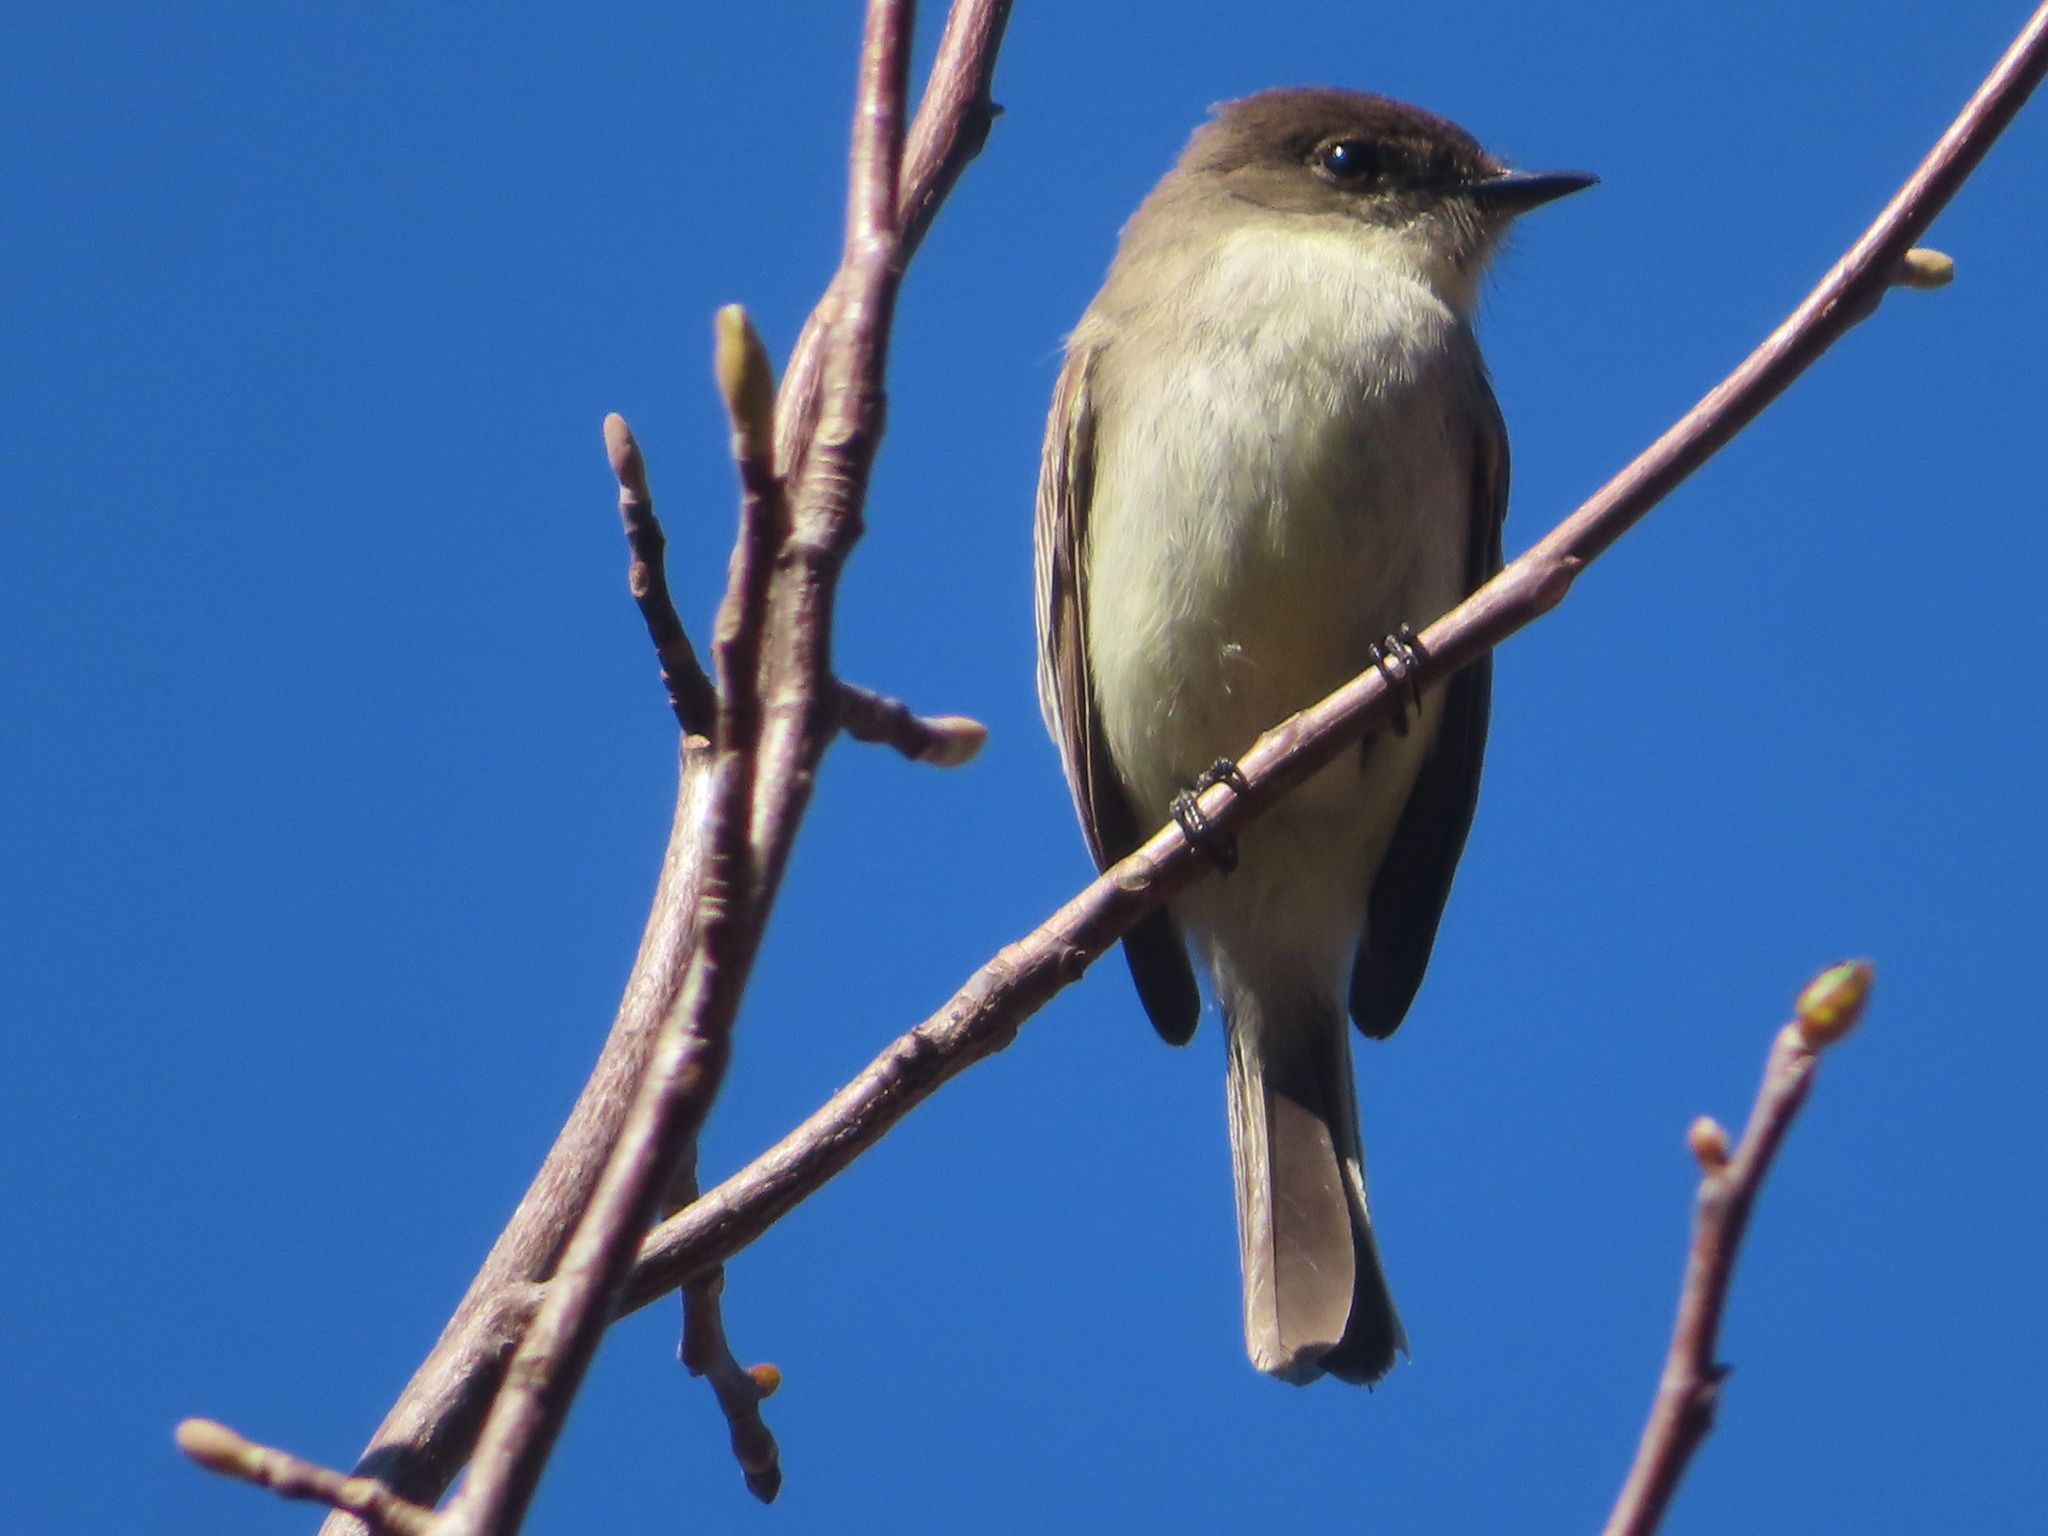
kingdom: Animalia
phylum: Chordata
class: Aves
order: Passeriformes
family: Tyrannidae
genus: Sayornis
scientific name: Sayornis phoebe
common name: Eastern phoebe
